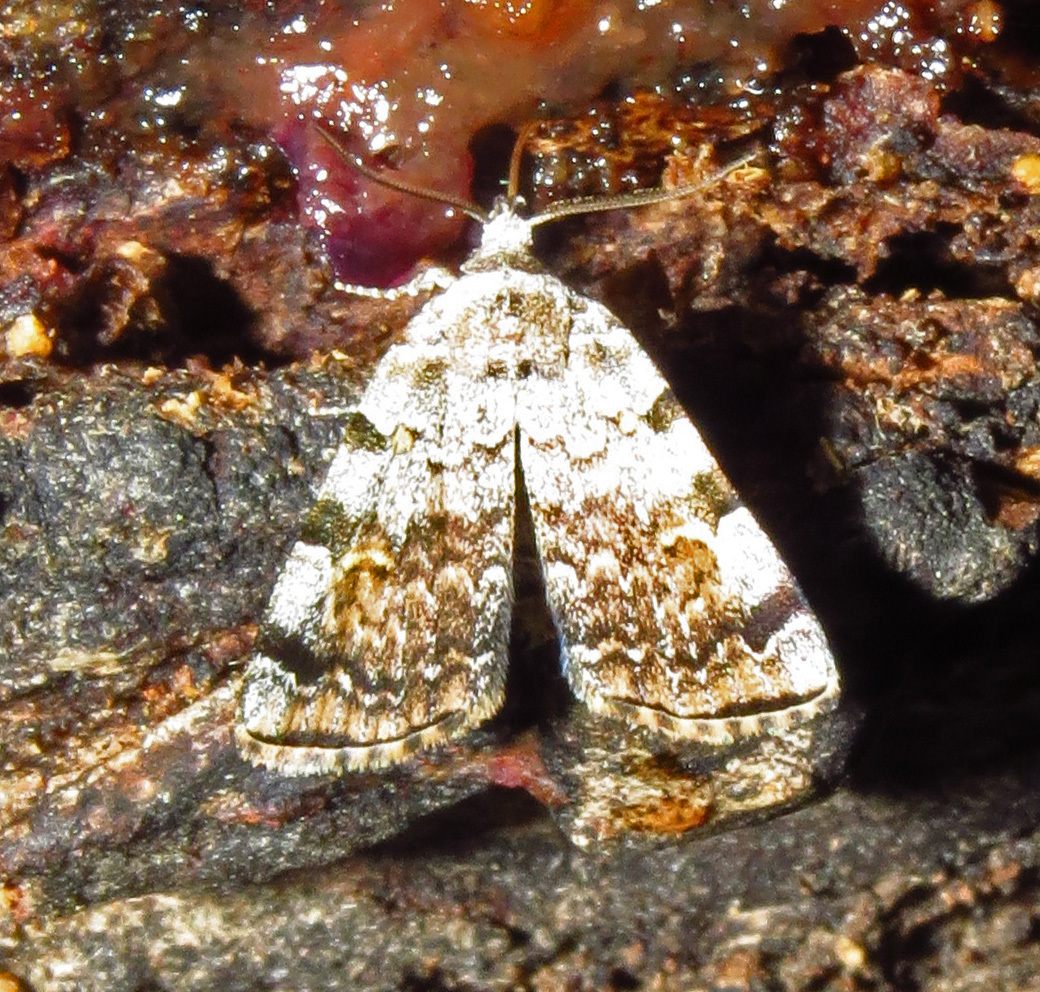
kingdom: Animalia
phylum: Arthropoda
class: Insecta
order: Lepidoptera
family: Erebidae
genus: Idia
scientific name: Idia americalis
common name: American idia moth
